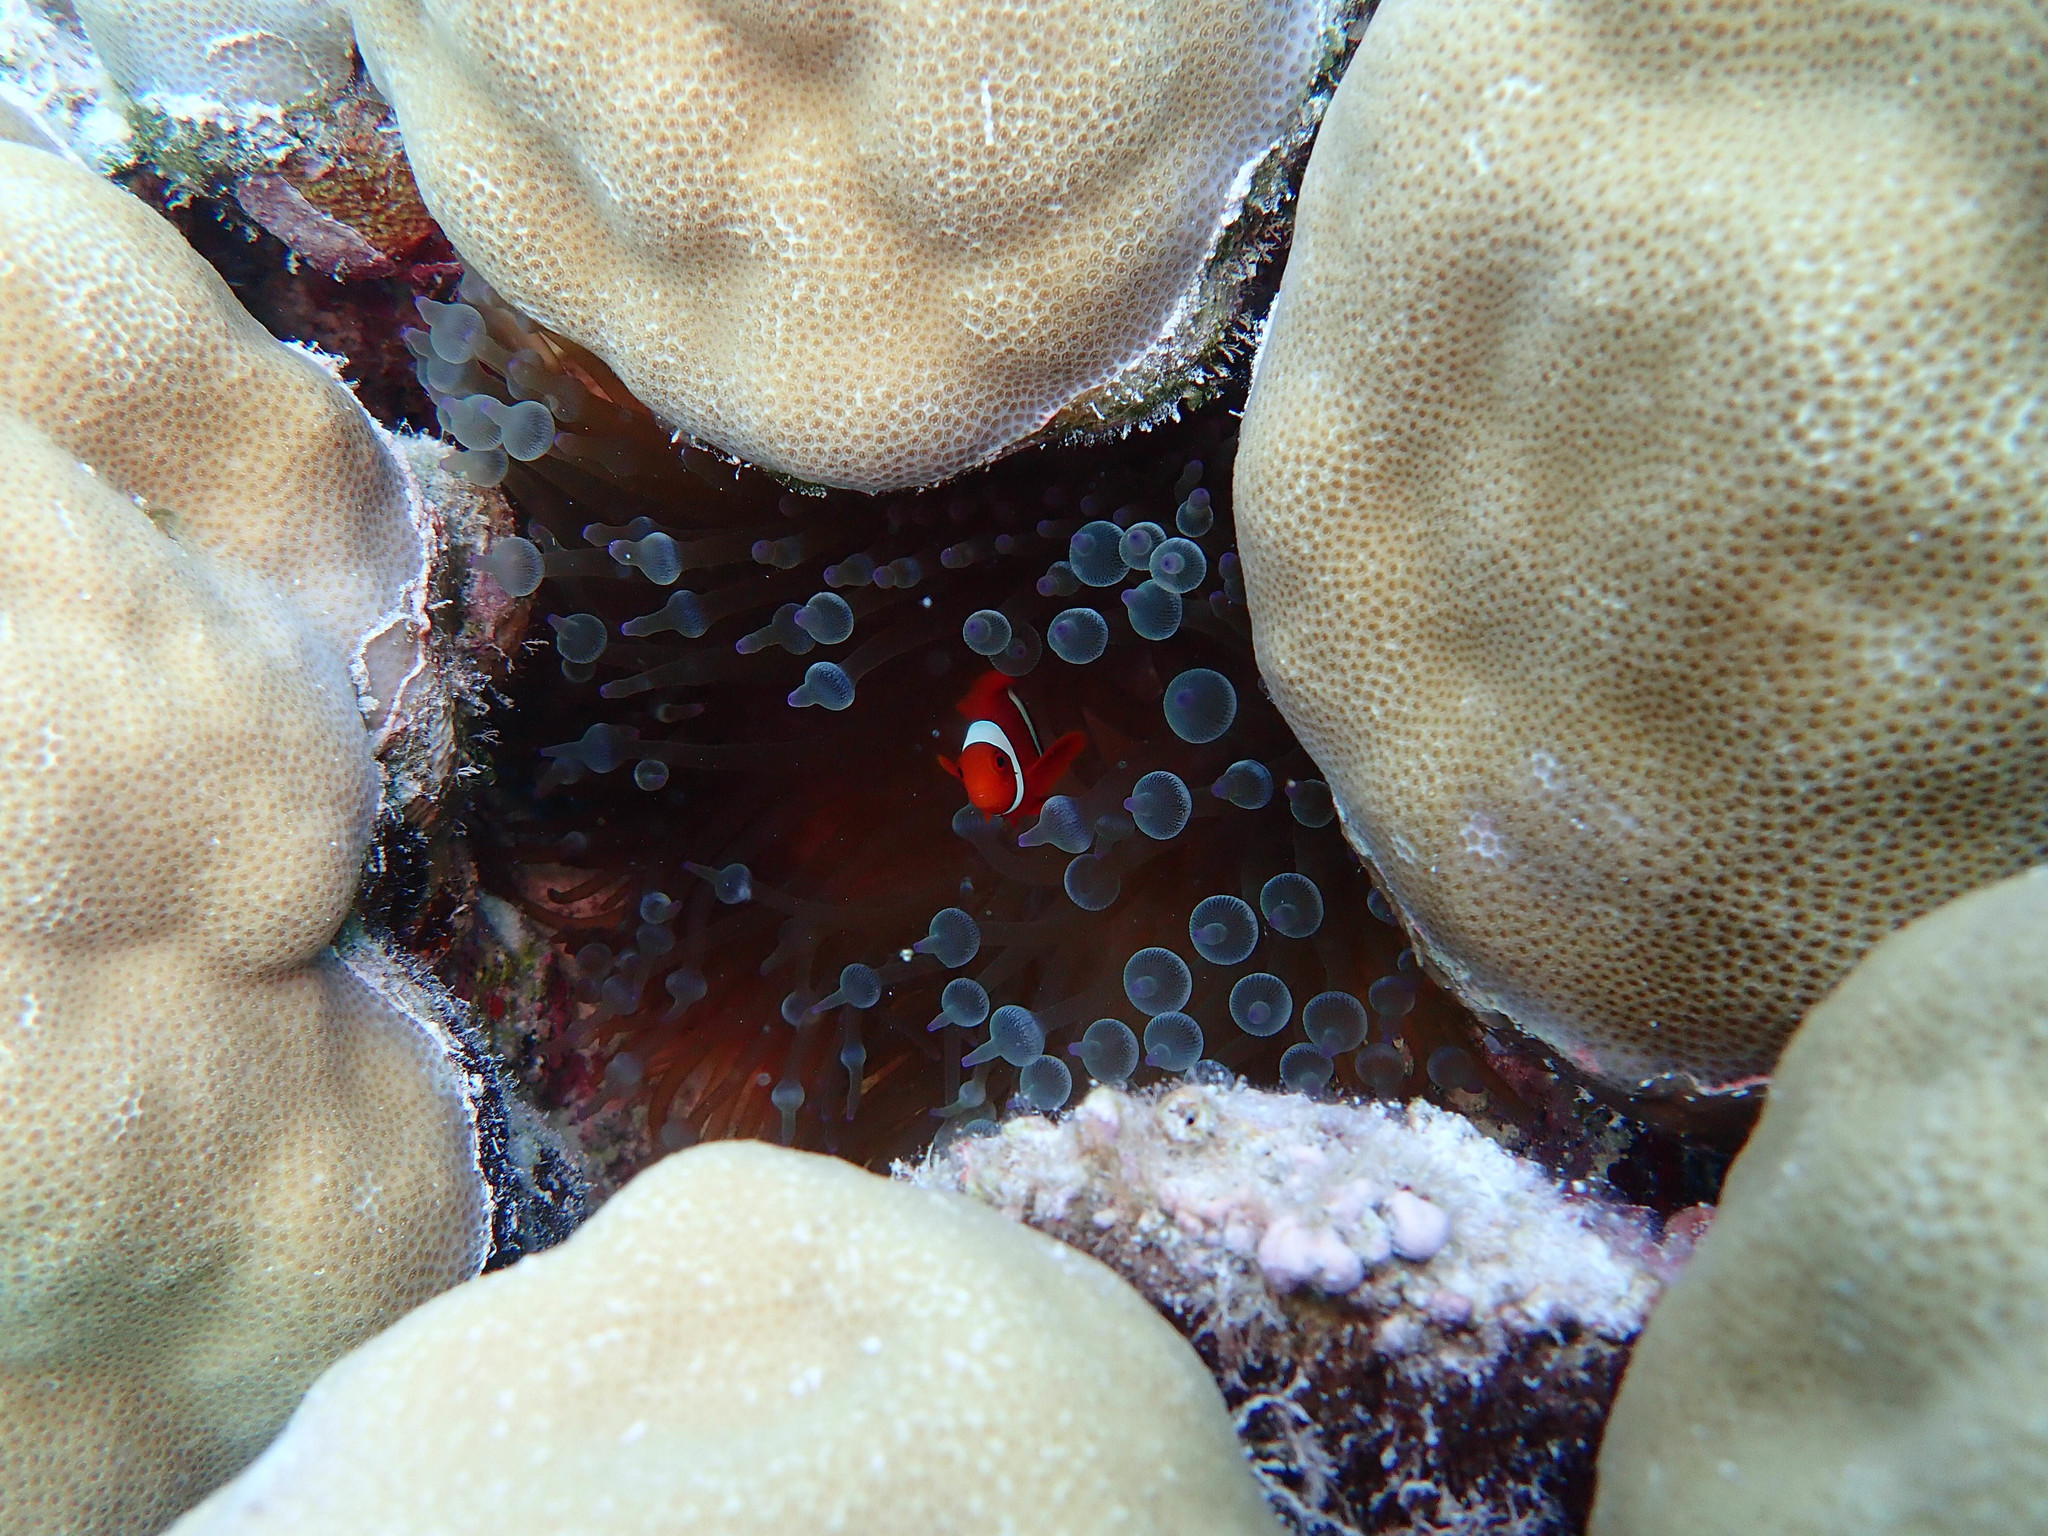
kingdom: Animalia
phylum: Cnidaria
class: Anthozoa
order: Actiniaria
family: Actiniidae
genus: Entacmaea
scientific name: Entacmaea quadricolor
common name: Bulb tentacle sea anemone
